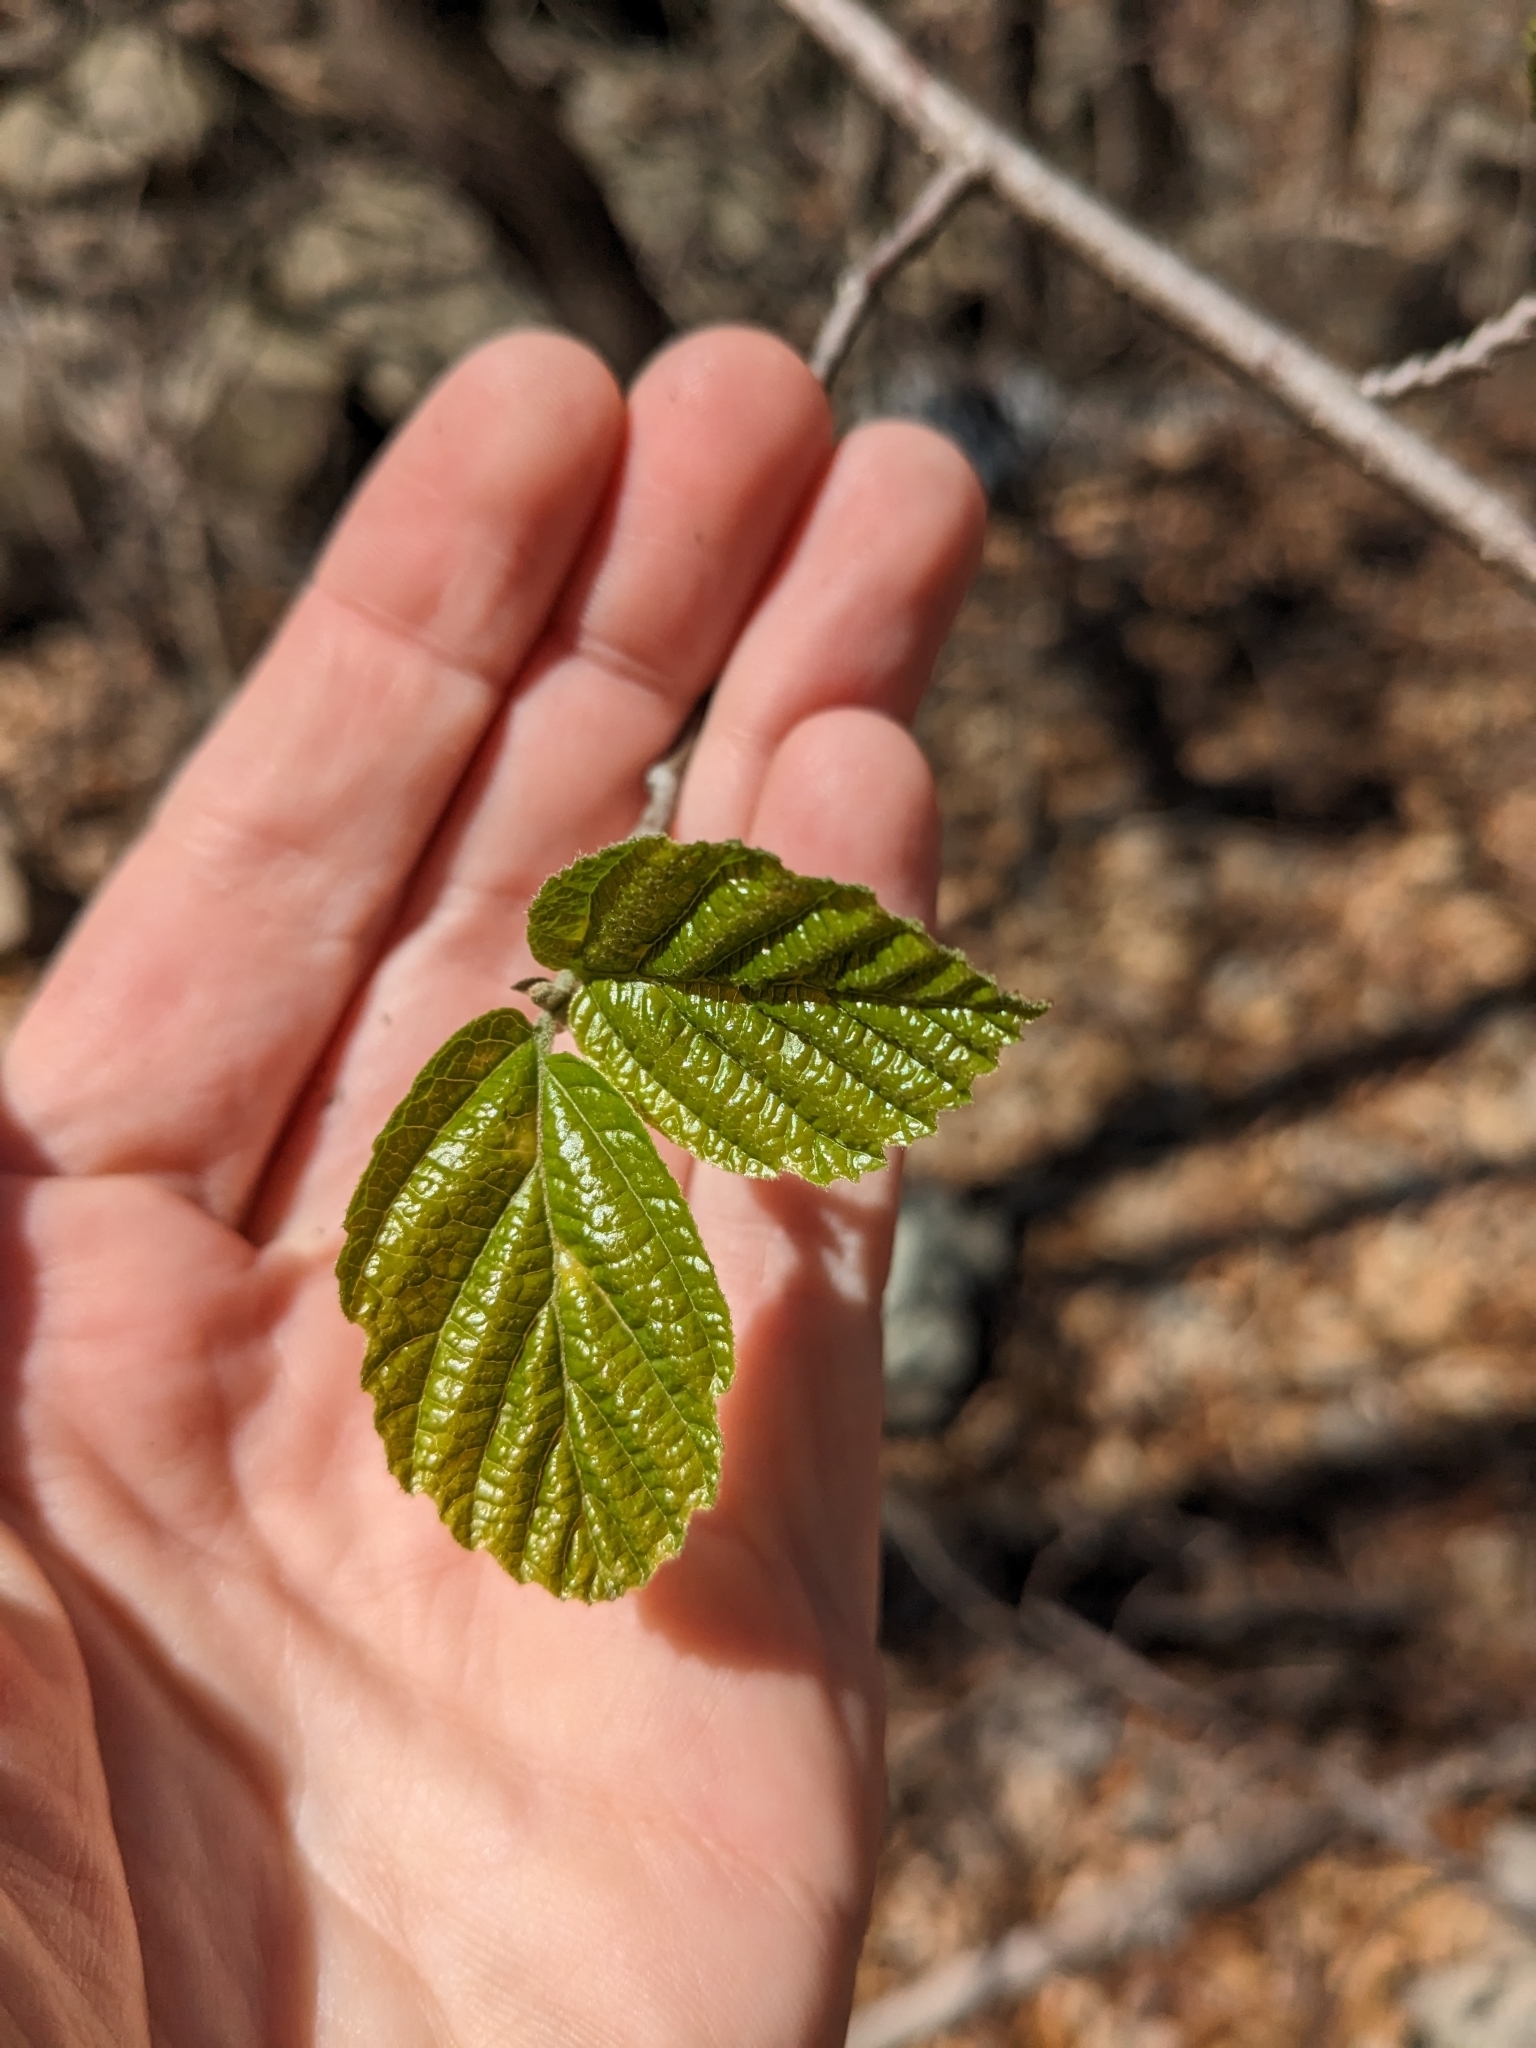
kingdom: Plantae
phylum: Tracheophyta
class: Magnoliopsida
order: Saxifragales
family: Hamamelidaceae
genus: Hamamelis
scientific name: Hamamelis virginiana
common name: Witch-hazel
